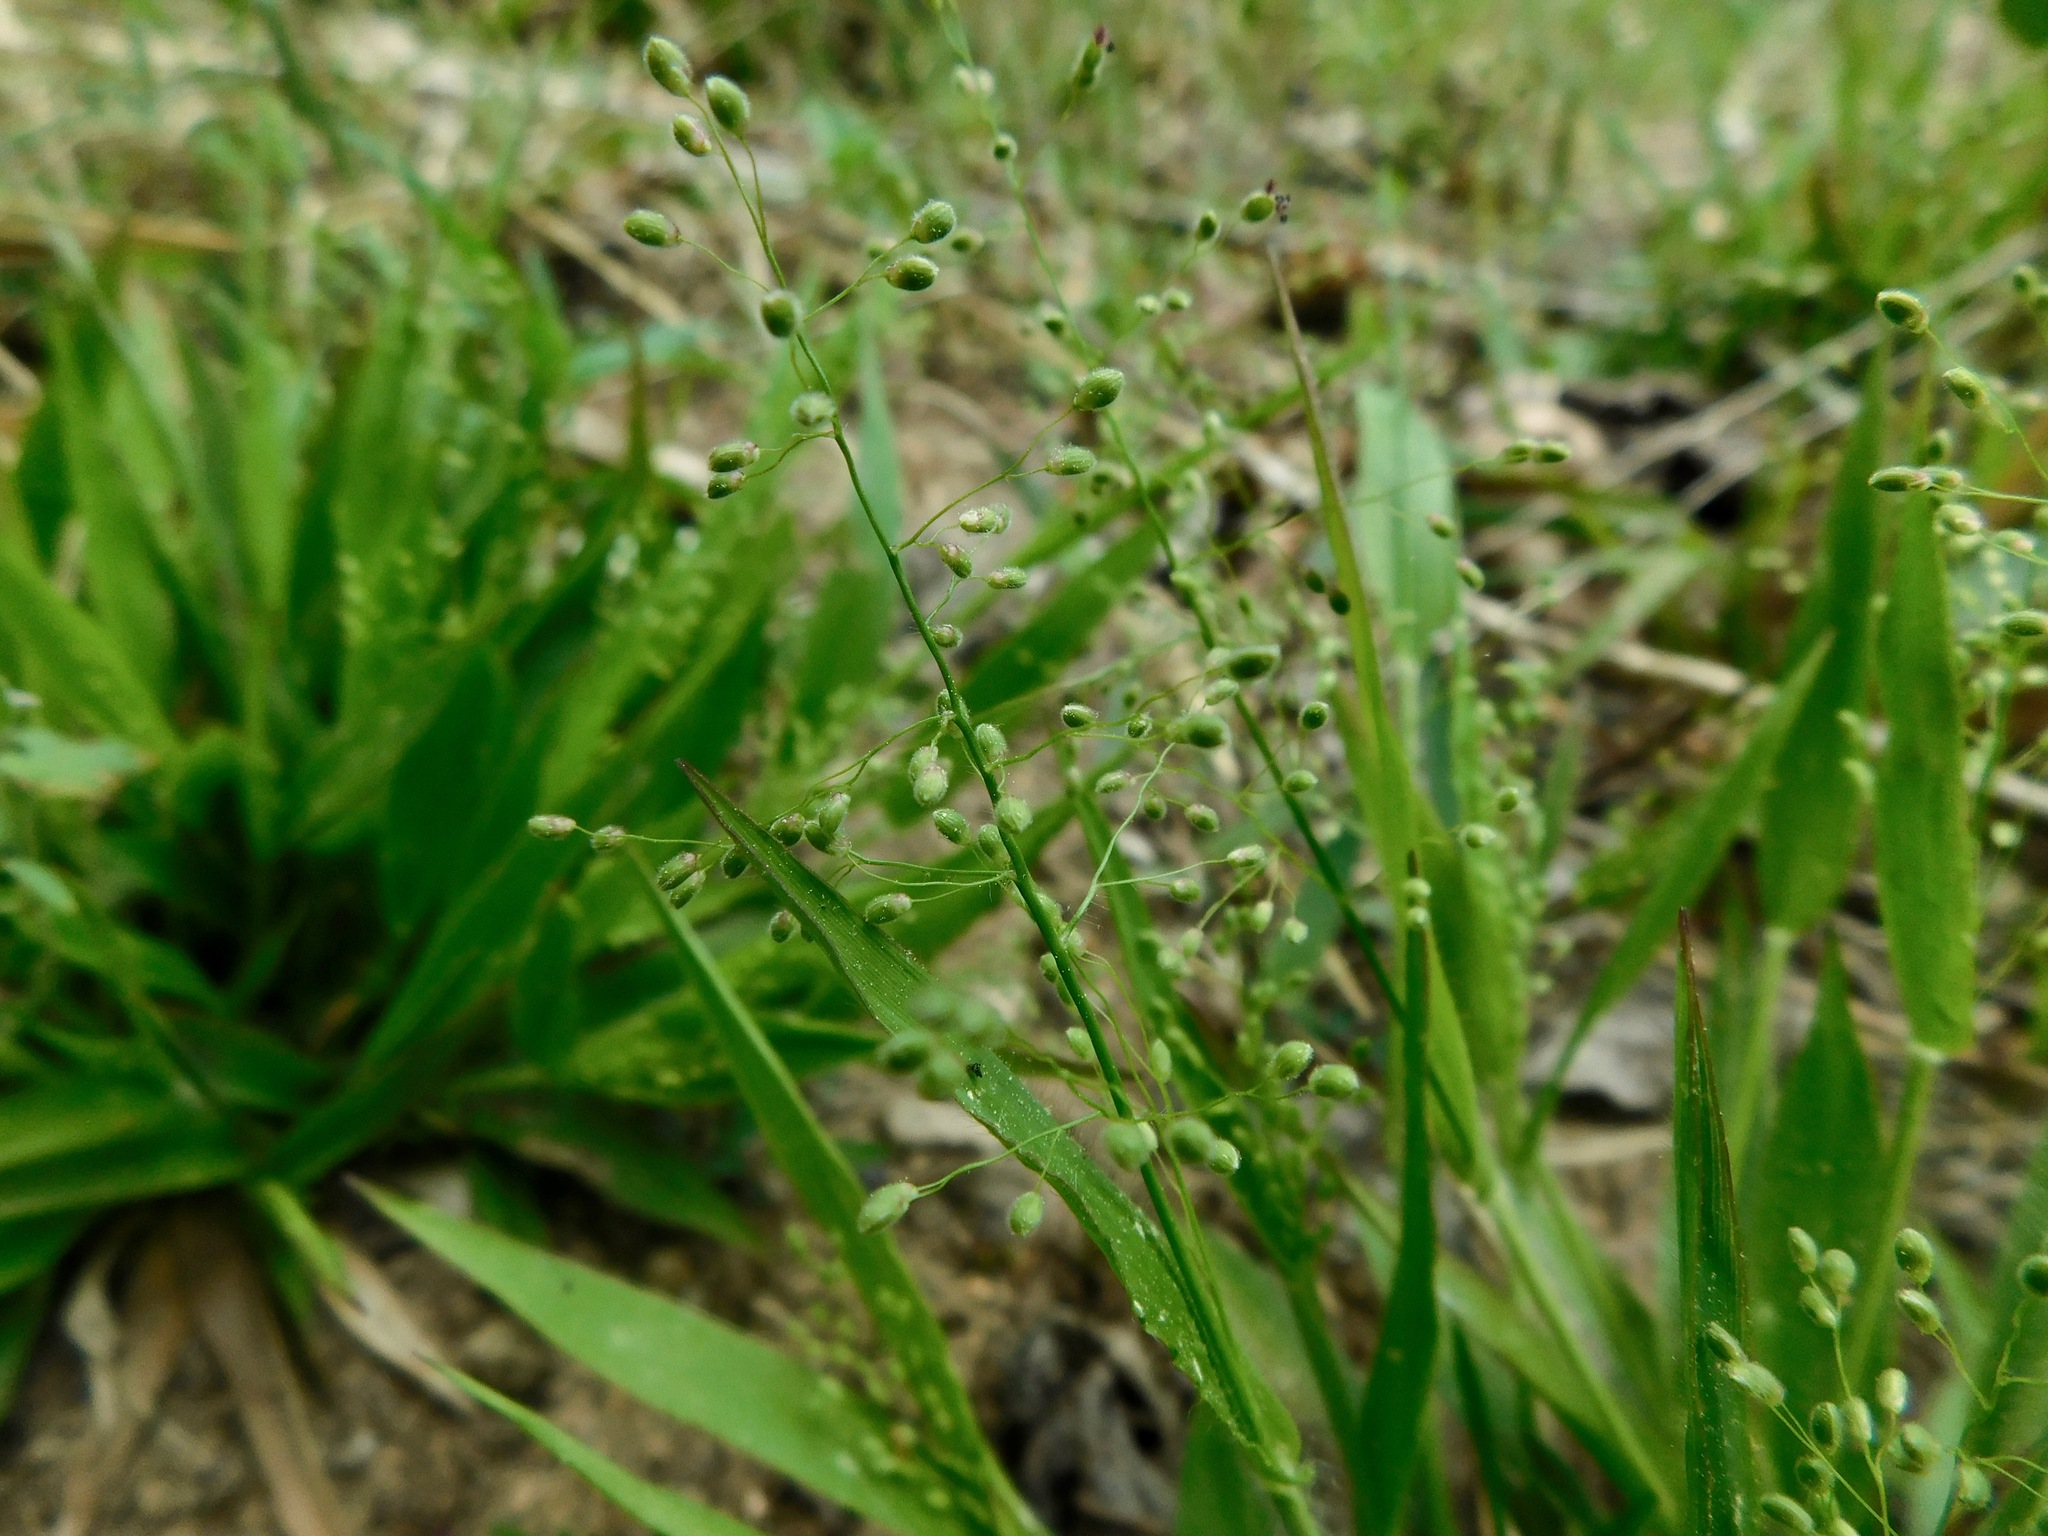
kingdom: Plantae
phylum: Tracheophyta
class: Liliopsida
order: Poales
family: Poaceae
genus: Dichanthelium
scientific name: Dichanthelium laxiflorum
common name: Soft-tuft panic grass
